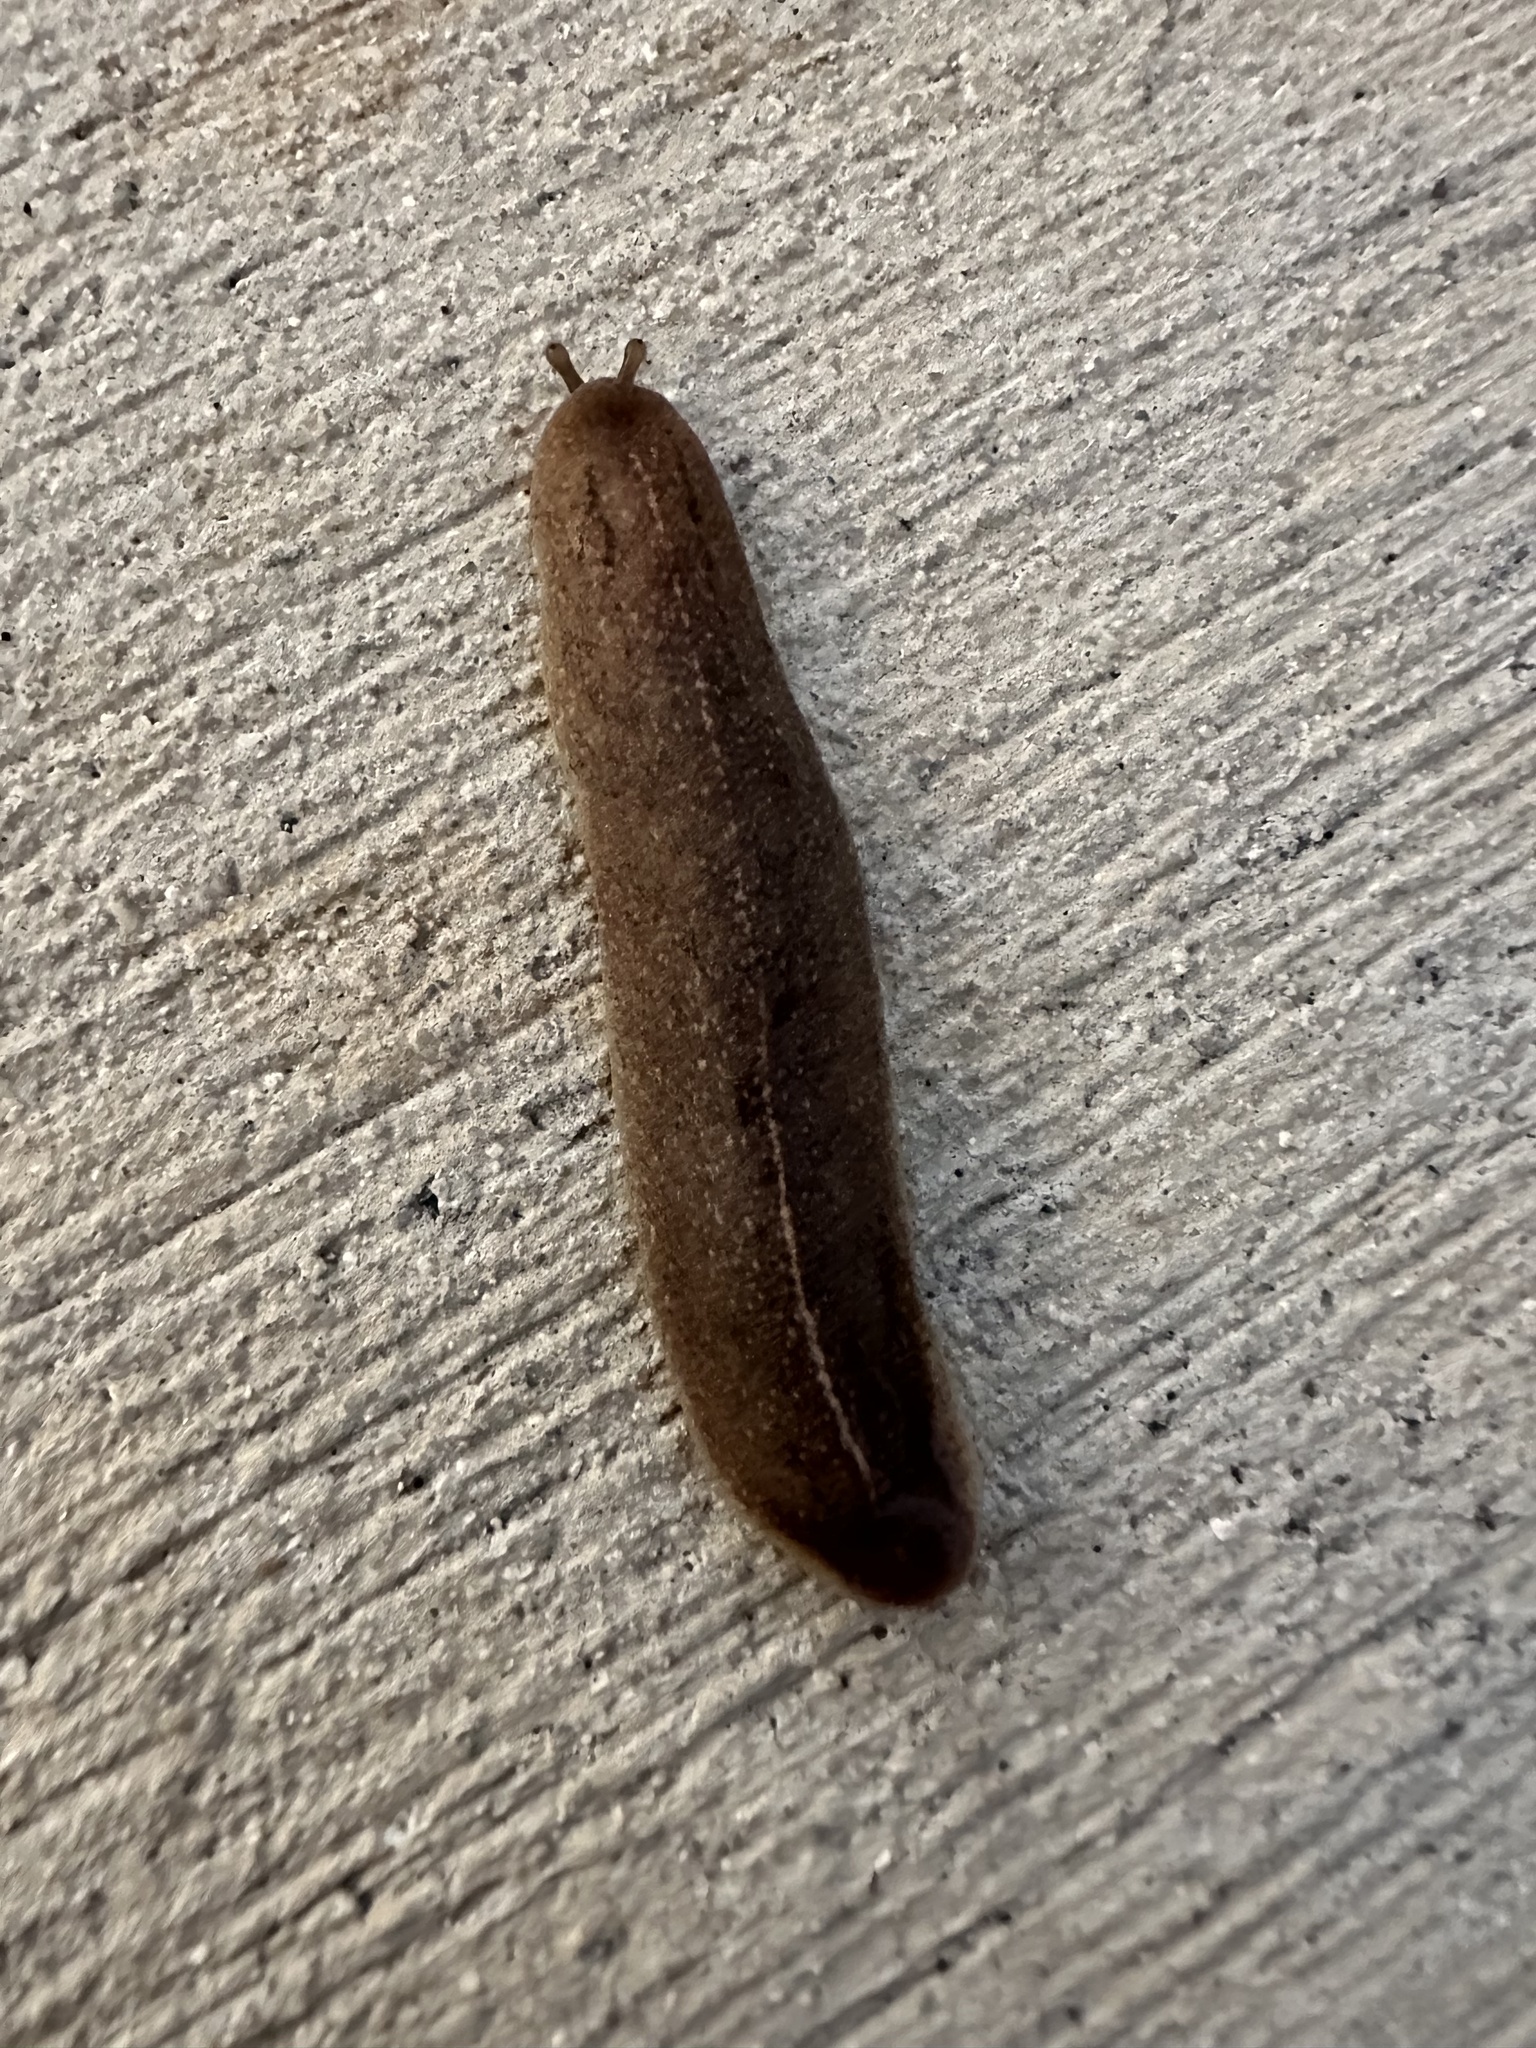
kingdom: Animalia
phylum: Mollusca
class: Gastropoda
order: Systellommatophora
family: Veronicellidae
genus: Leidyula
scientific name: Leidyula floridana
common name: Florida leatherleaf
